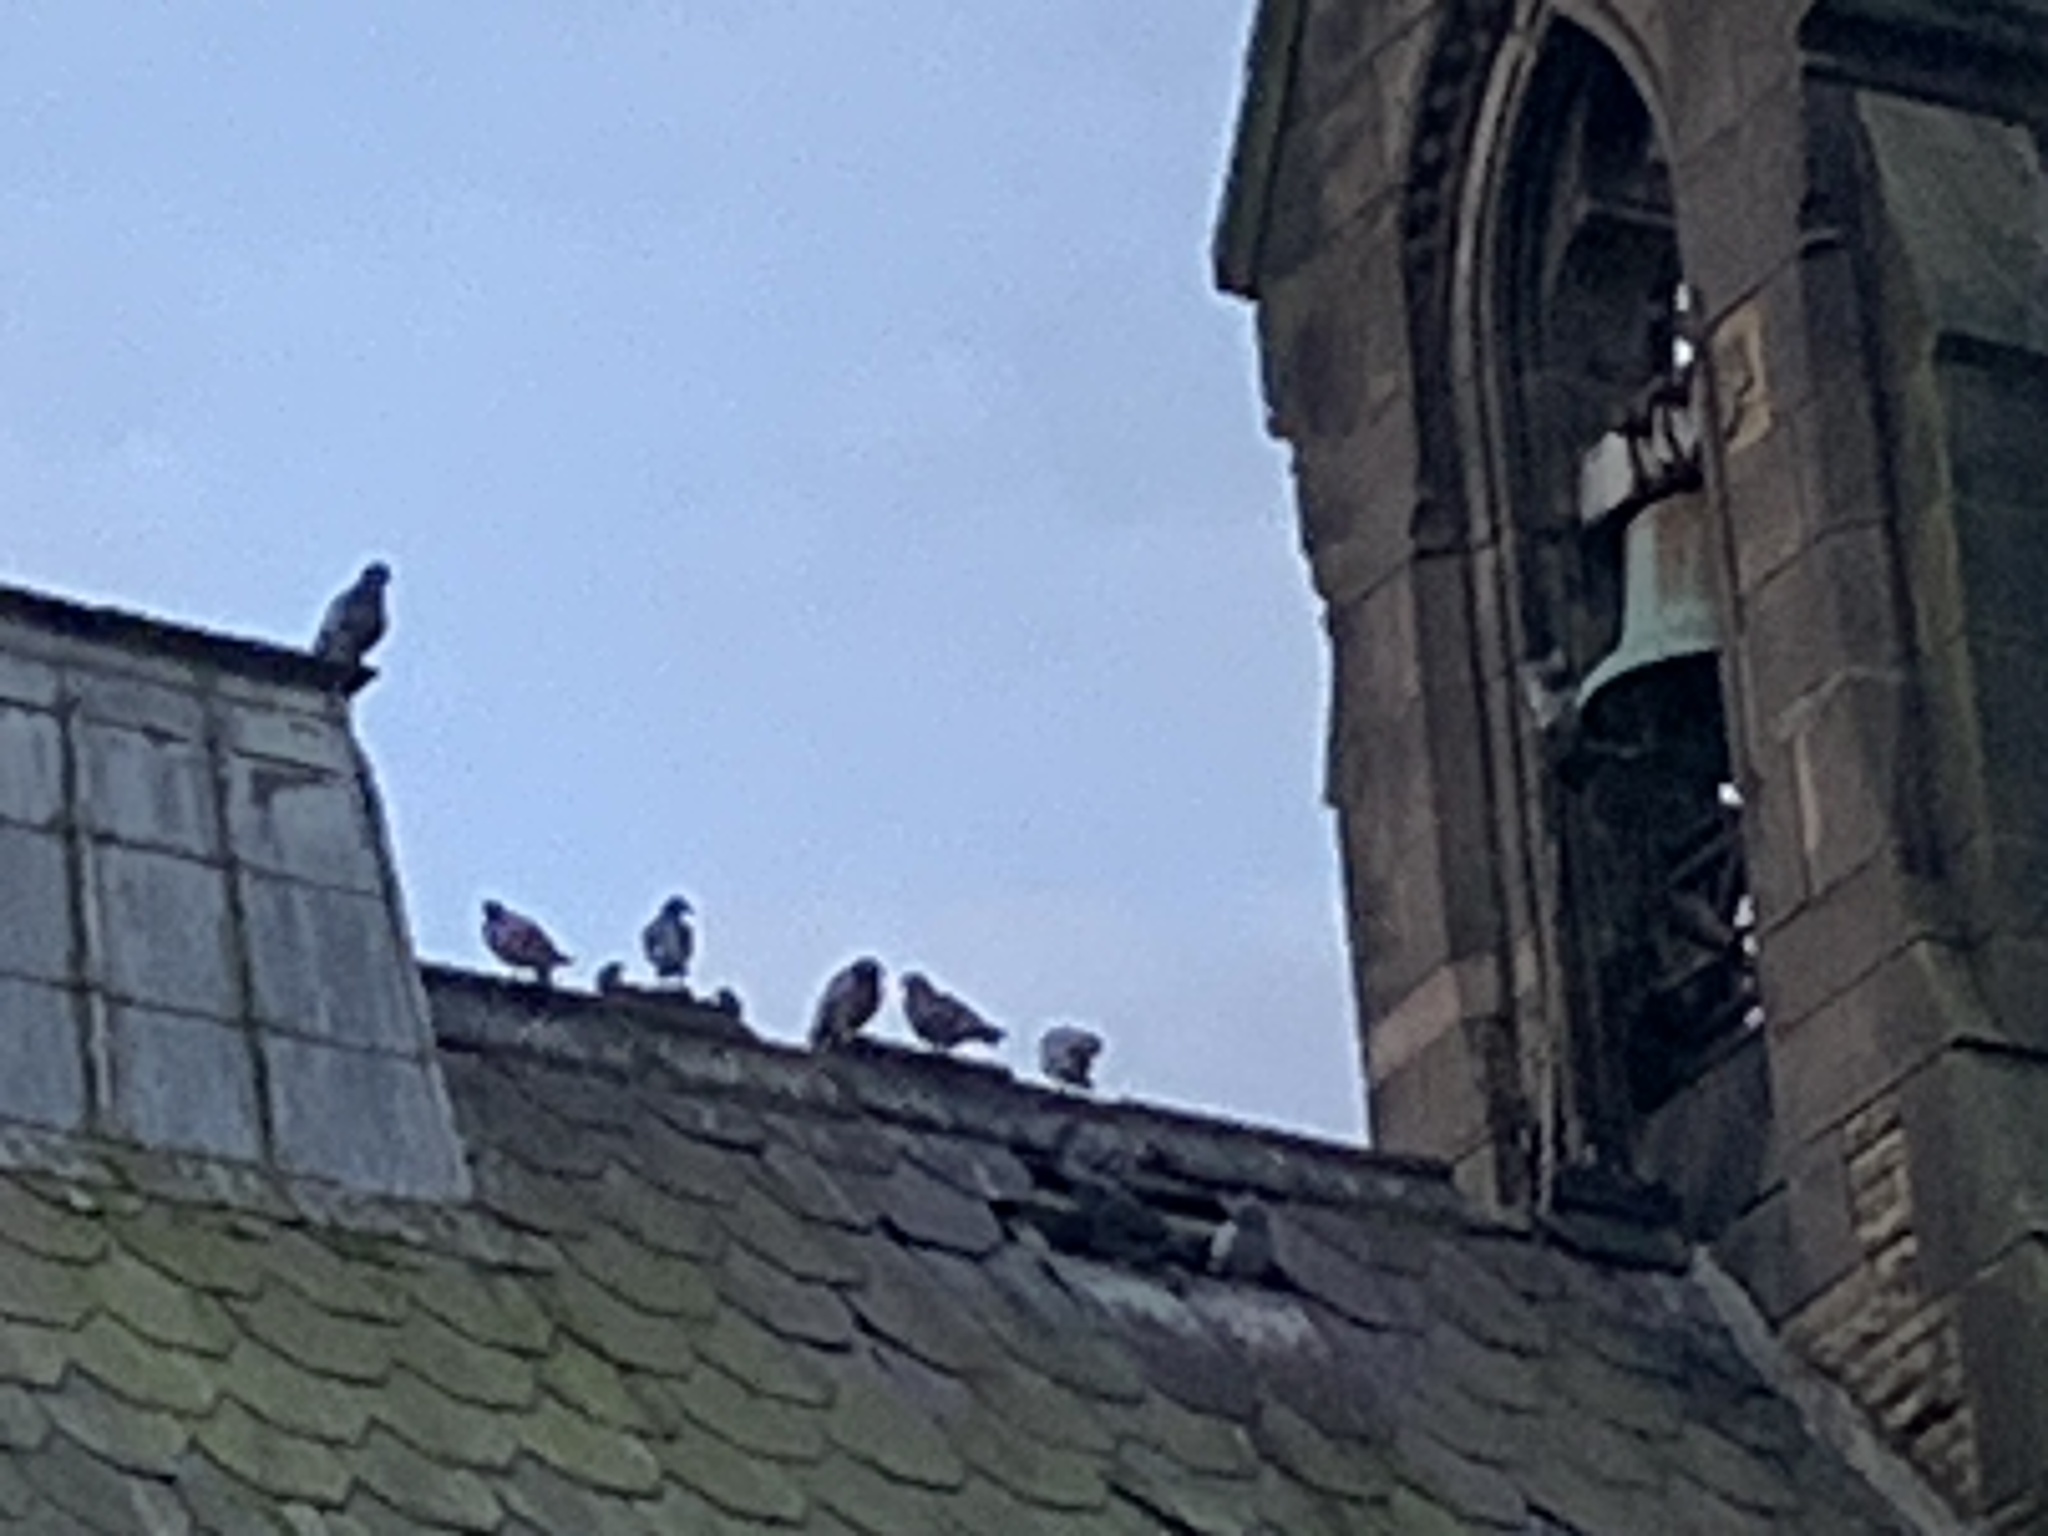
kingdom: Animalia
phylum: Chordata
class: Aves
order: Columbiformes
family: Columbidae
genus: Columba
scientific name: Columba livia
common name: Rock pigeon
